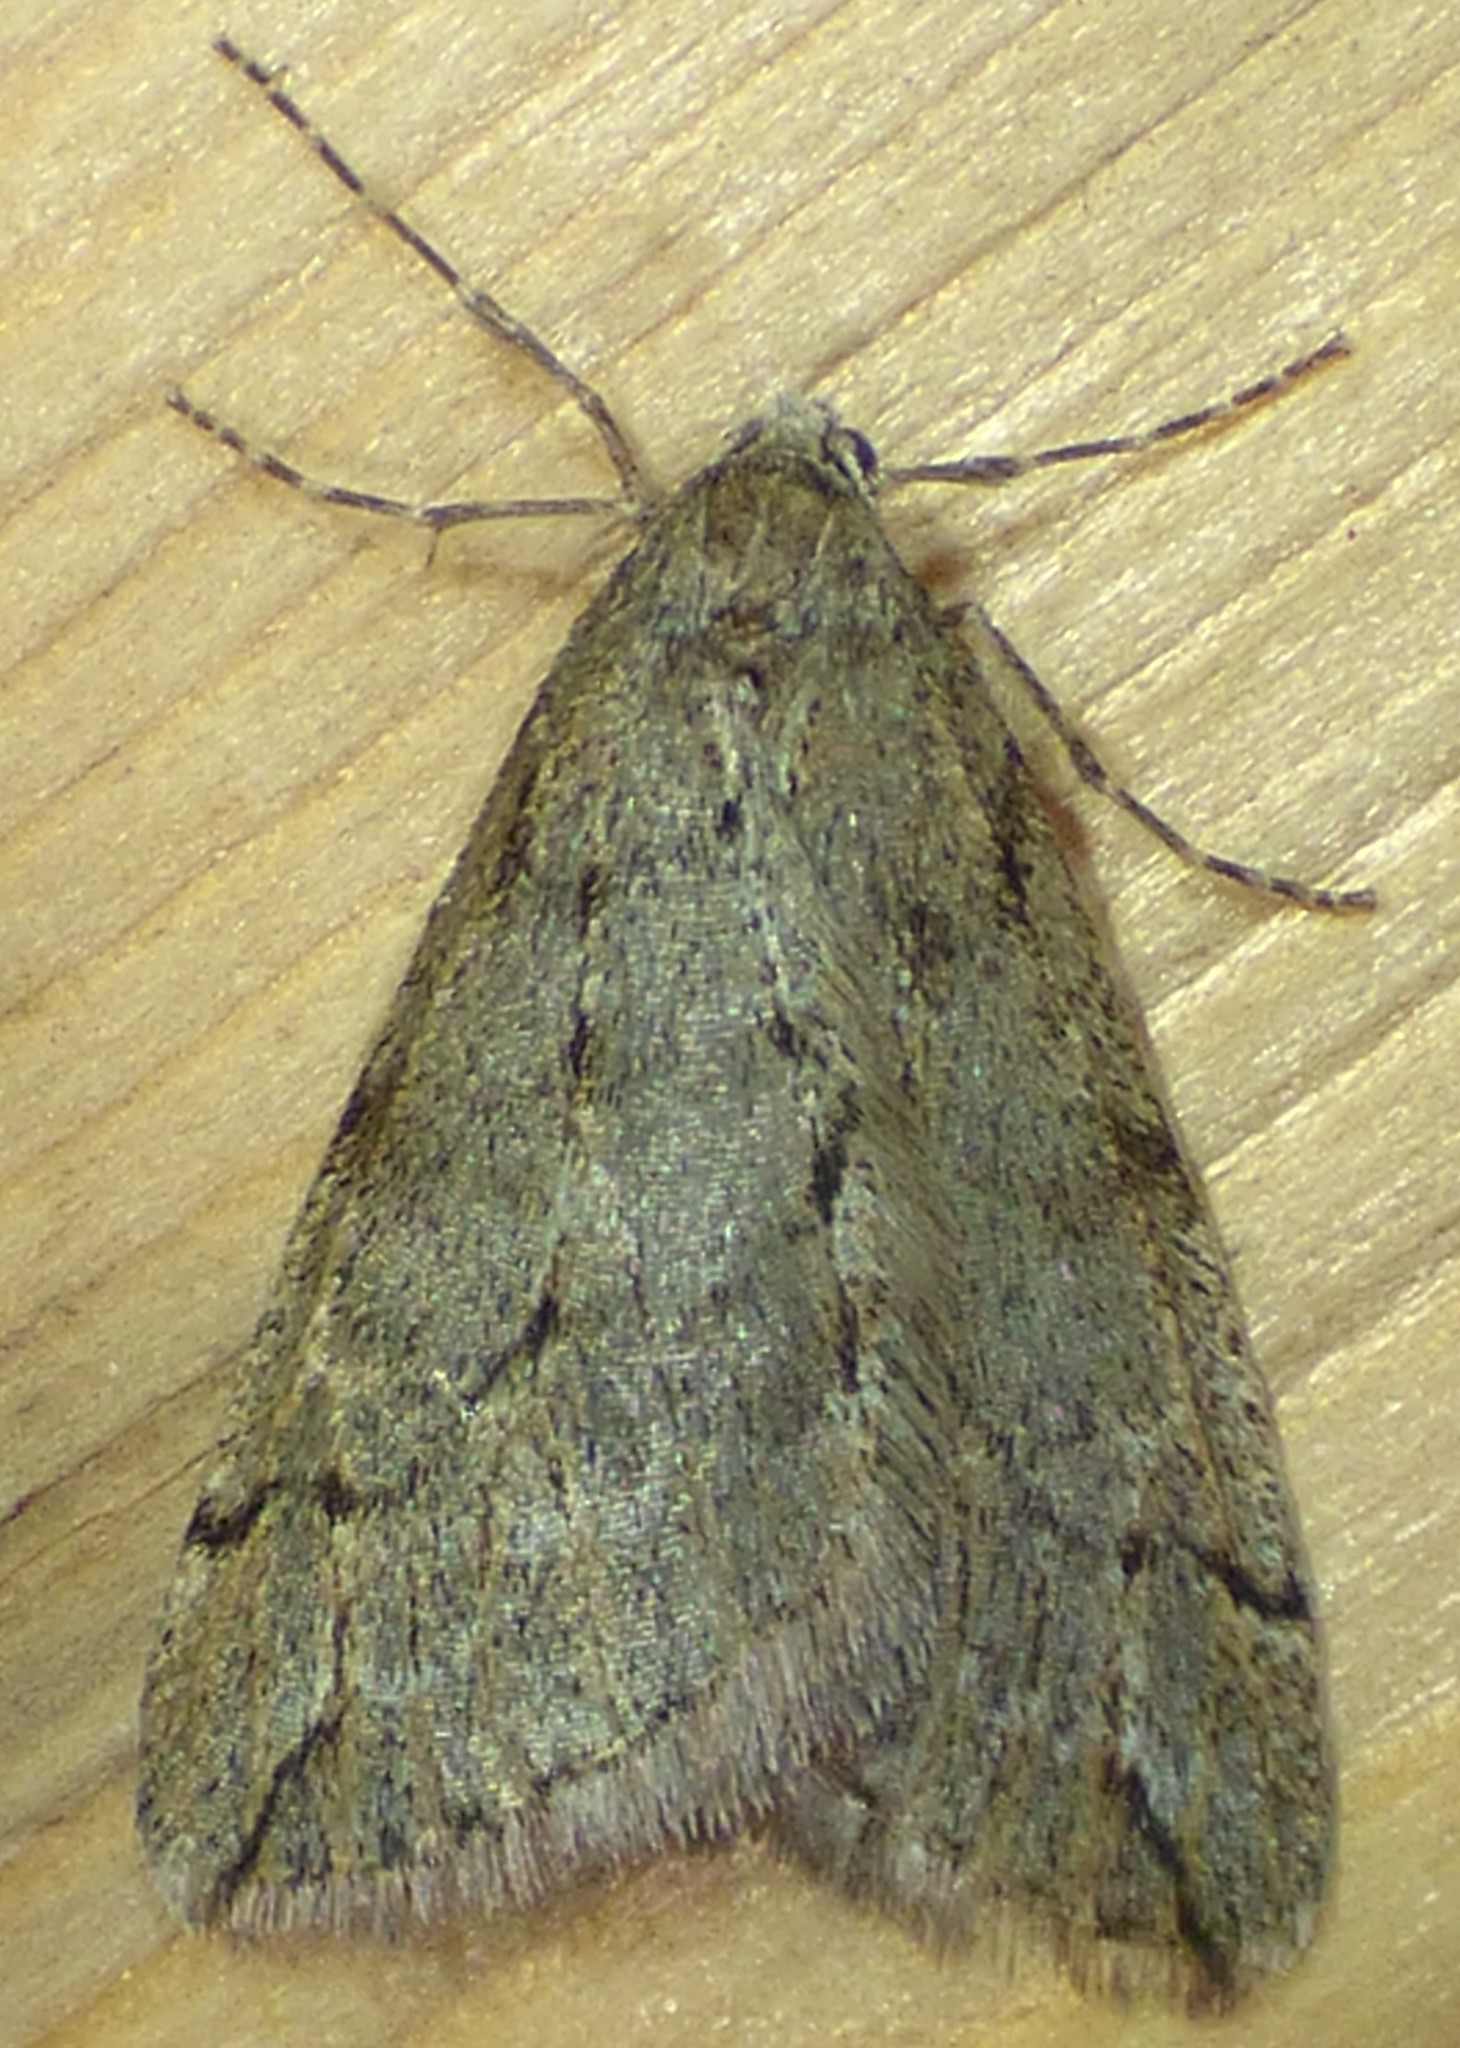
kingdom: Animalia
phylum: Arthropoda
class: Insecta
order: Lepidoptera
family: Geometridae
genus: Paleacrita
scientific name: Paleacrita vernata
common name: Spring cankerworm
